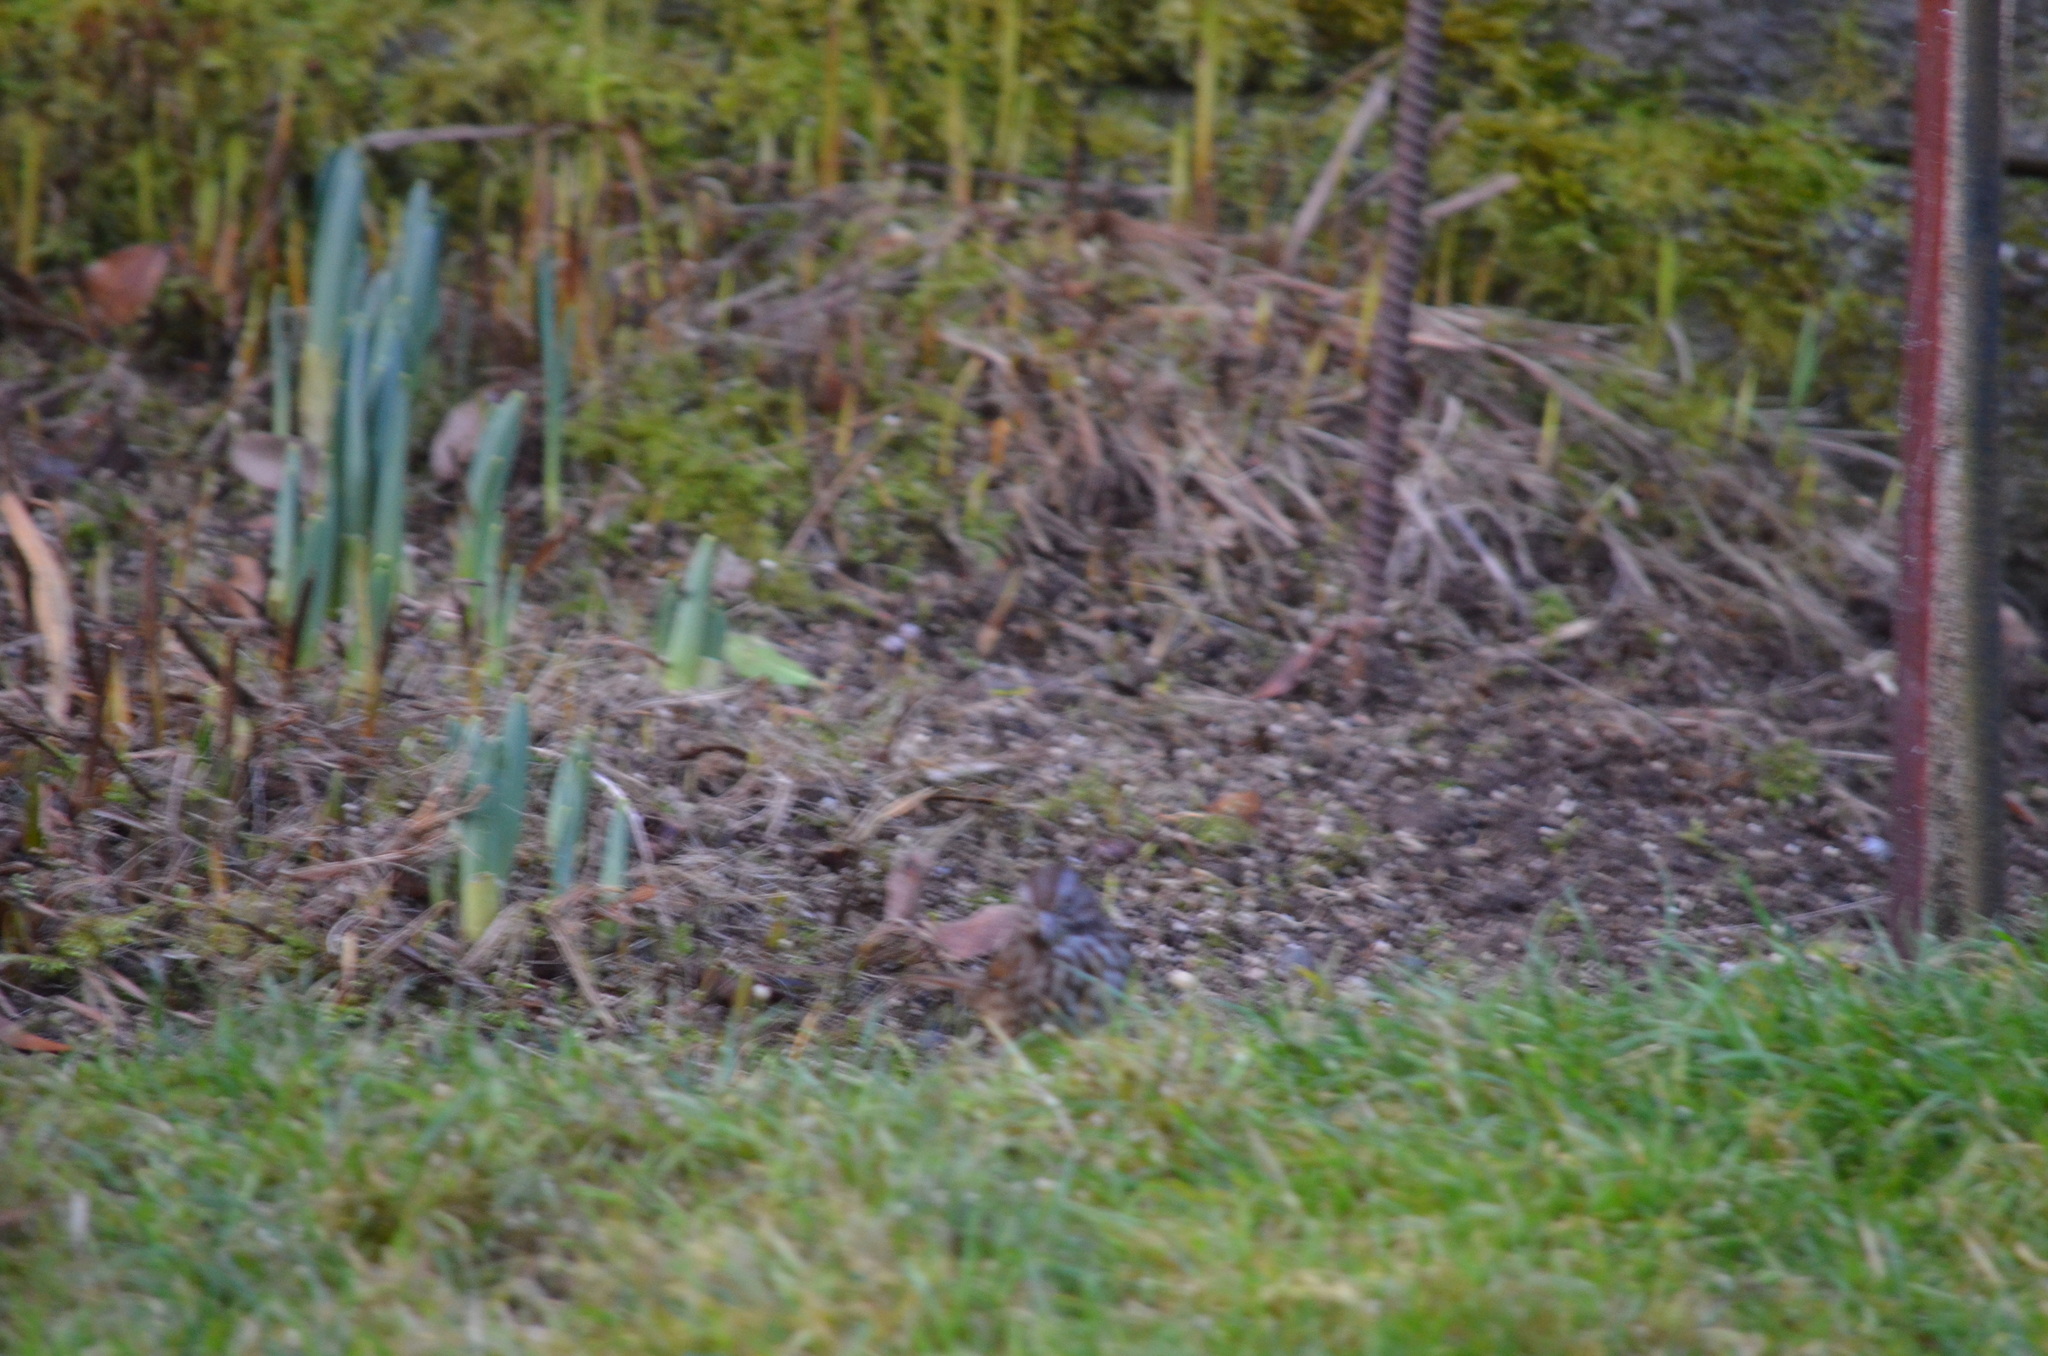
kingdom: Animalia
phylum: Chordata
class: Aves
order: Passeriformes
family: Passerellidae
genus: Melospiza
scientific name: Melospiza melodia
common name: Song sparrow
